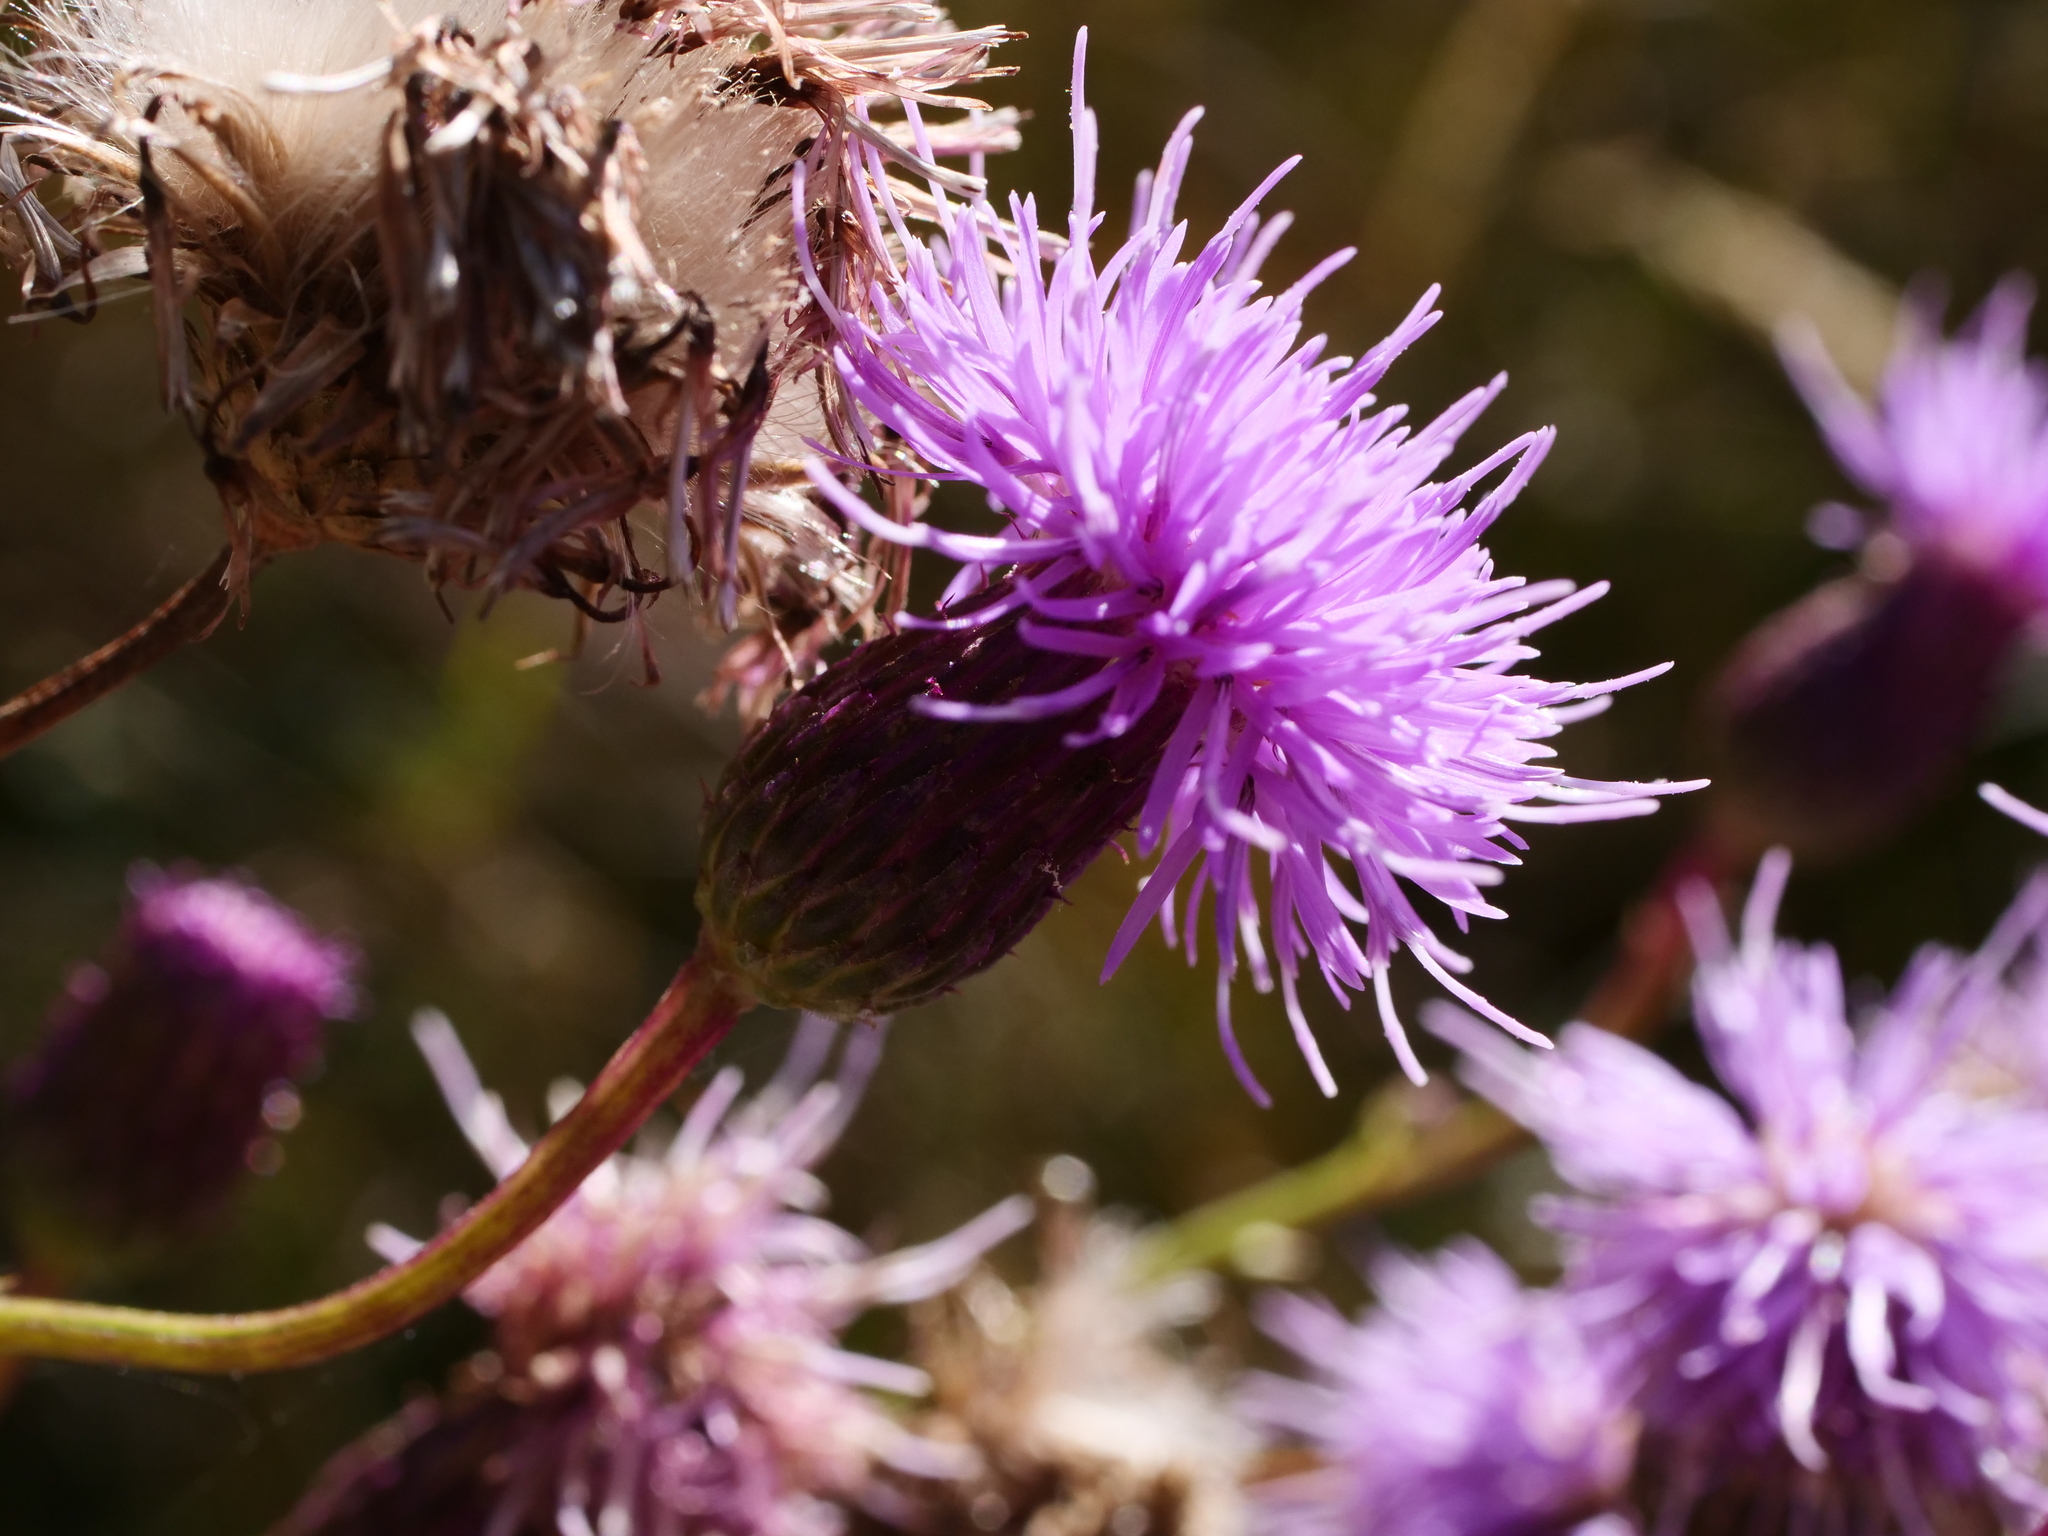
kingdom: Plantae
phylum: Tracheophyta
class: Magnoliopsida
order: Asterales
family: Asteraceae
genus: Cirsium
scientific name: Cirsium arvense
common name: Creeping thistle
